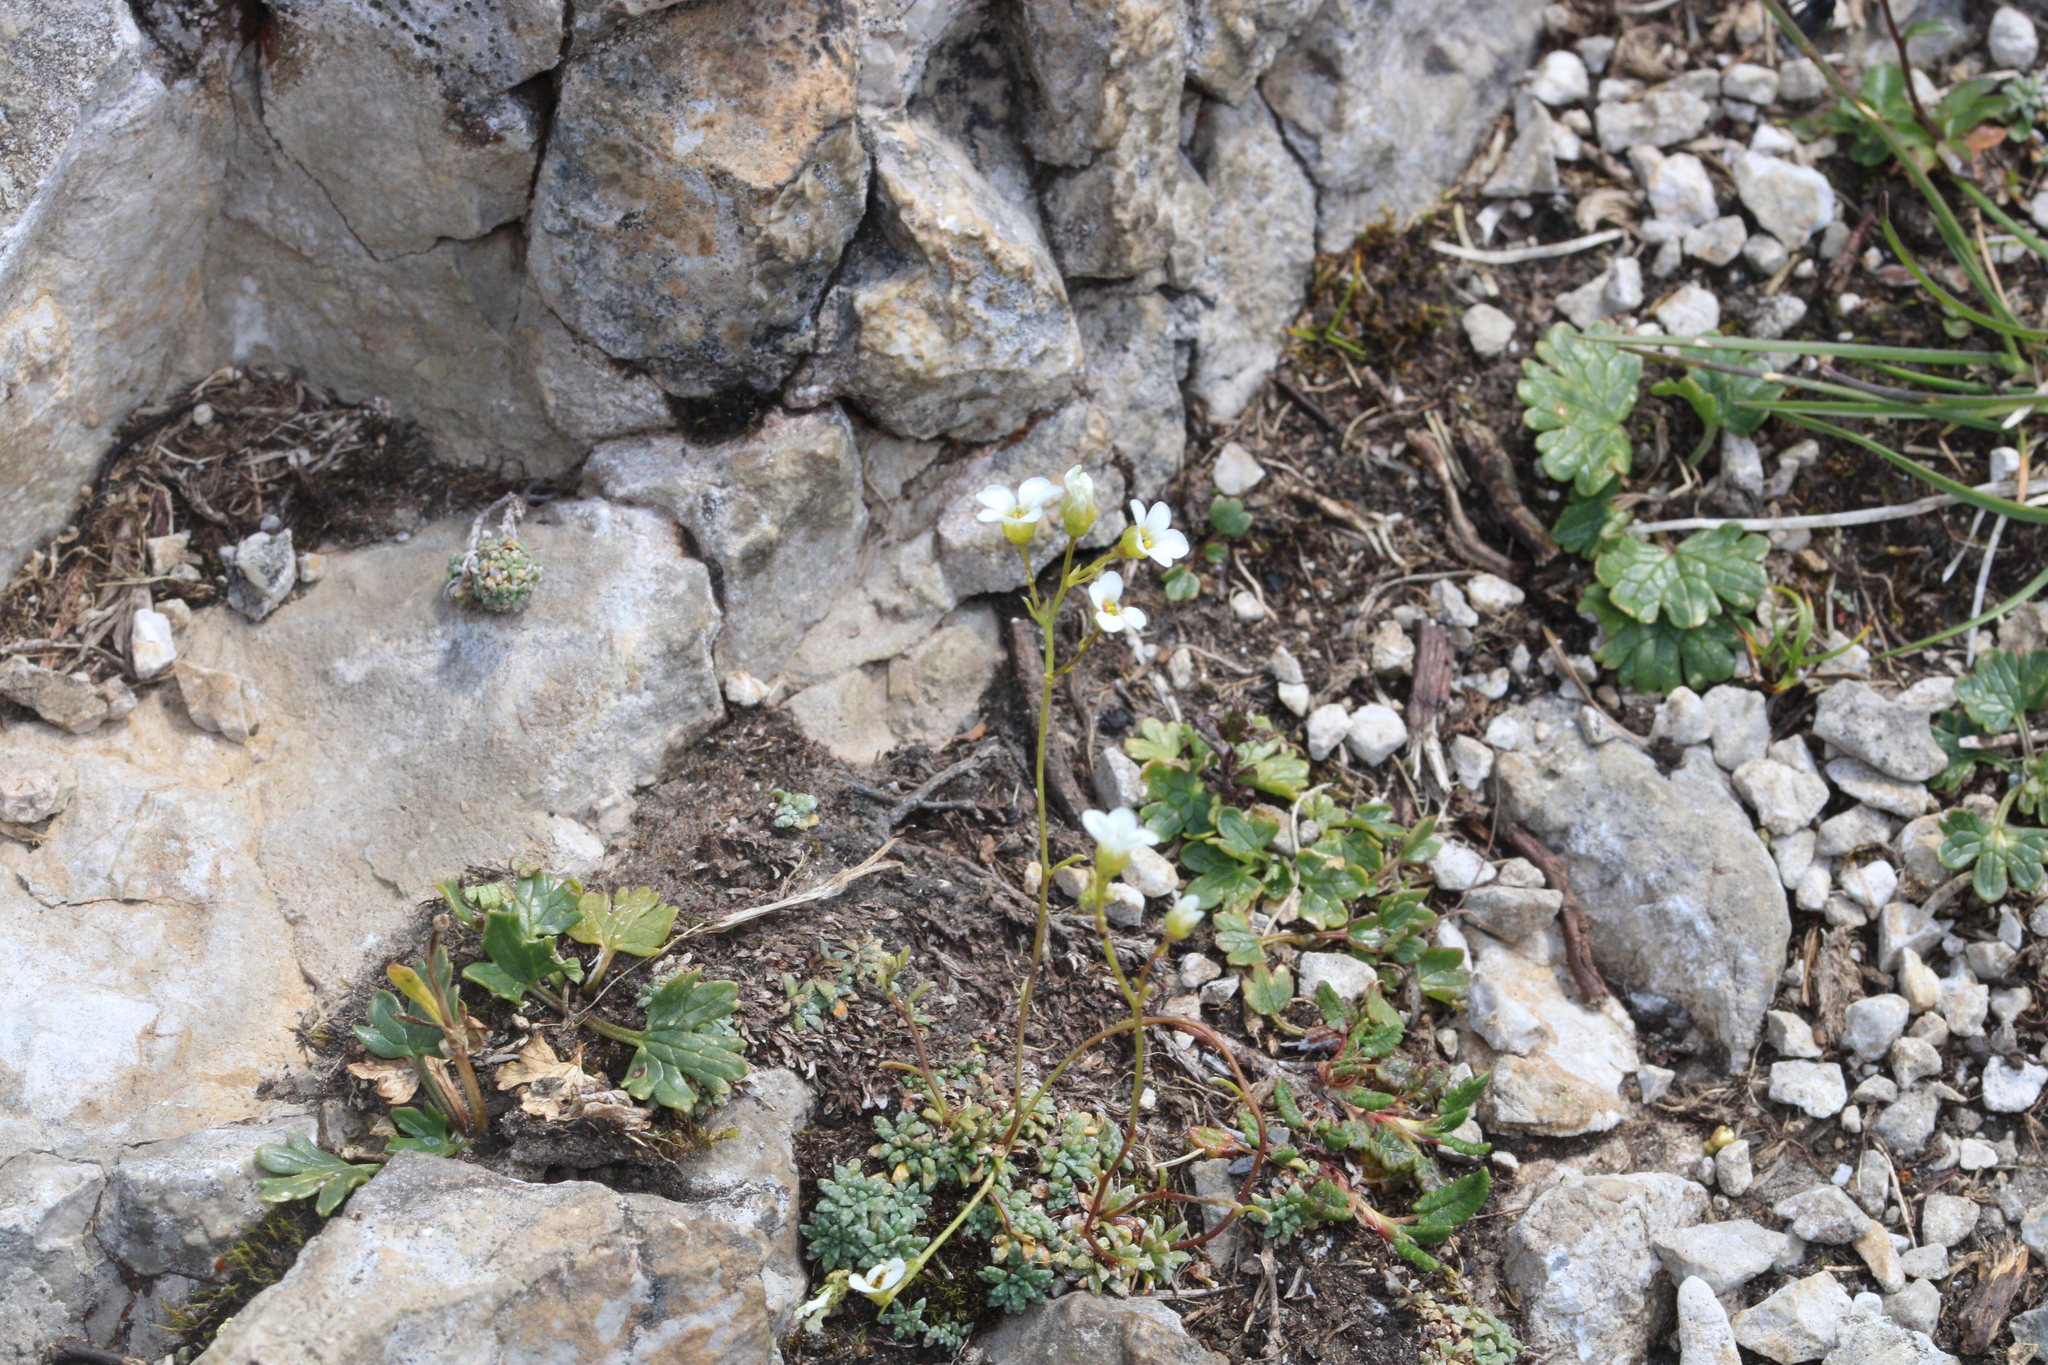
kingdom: Plantae
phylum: Tracheophyta
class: Magnoliopsida
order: Saxifragales
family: Saxifragaceae
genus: Saxifraga
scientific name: Saxifraga caesia
